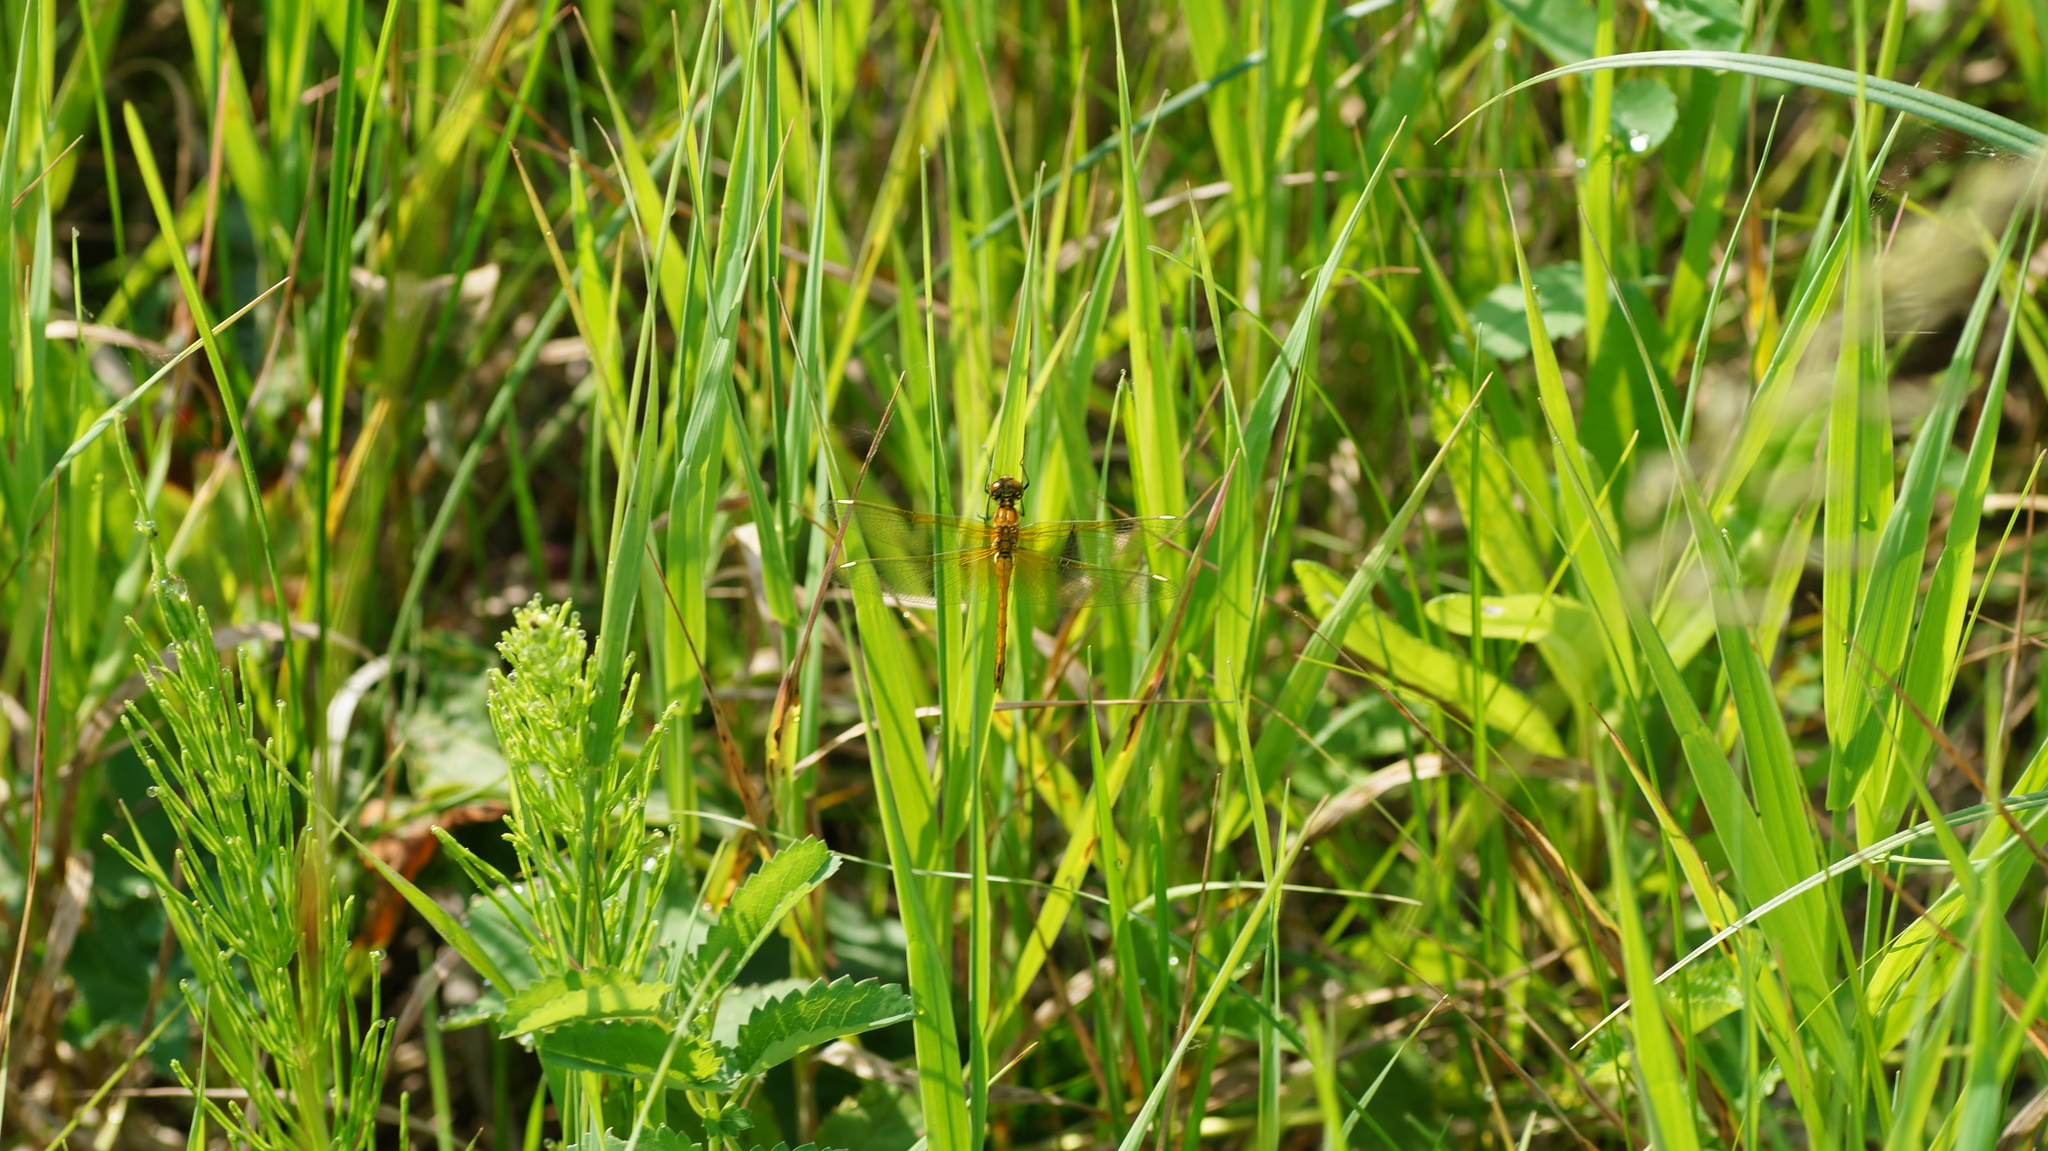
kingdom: Animalia
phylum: Arthropoda
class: Insecta
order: Odonata
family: Libellulidae
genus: Sympetrum
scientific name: Sympetrum flaveolum
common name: Yellow-winged darter
